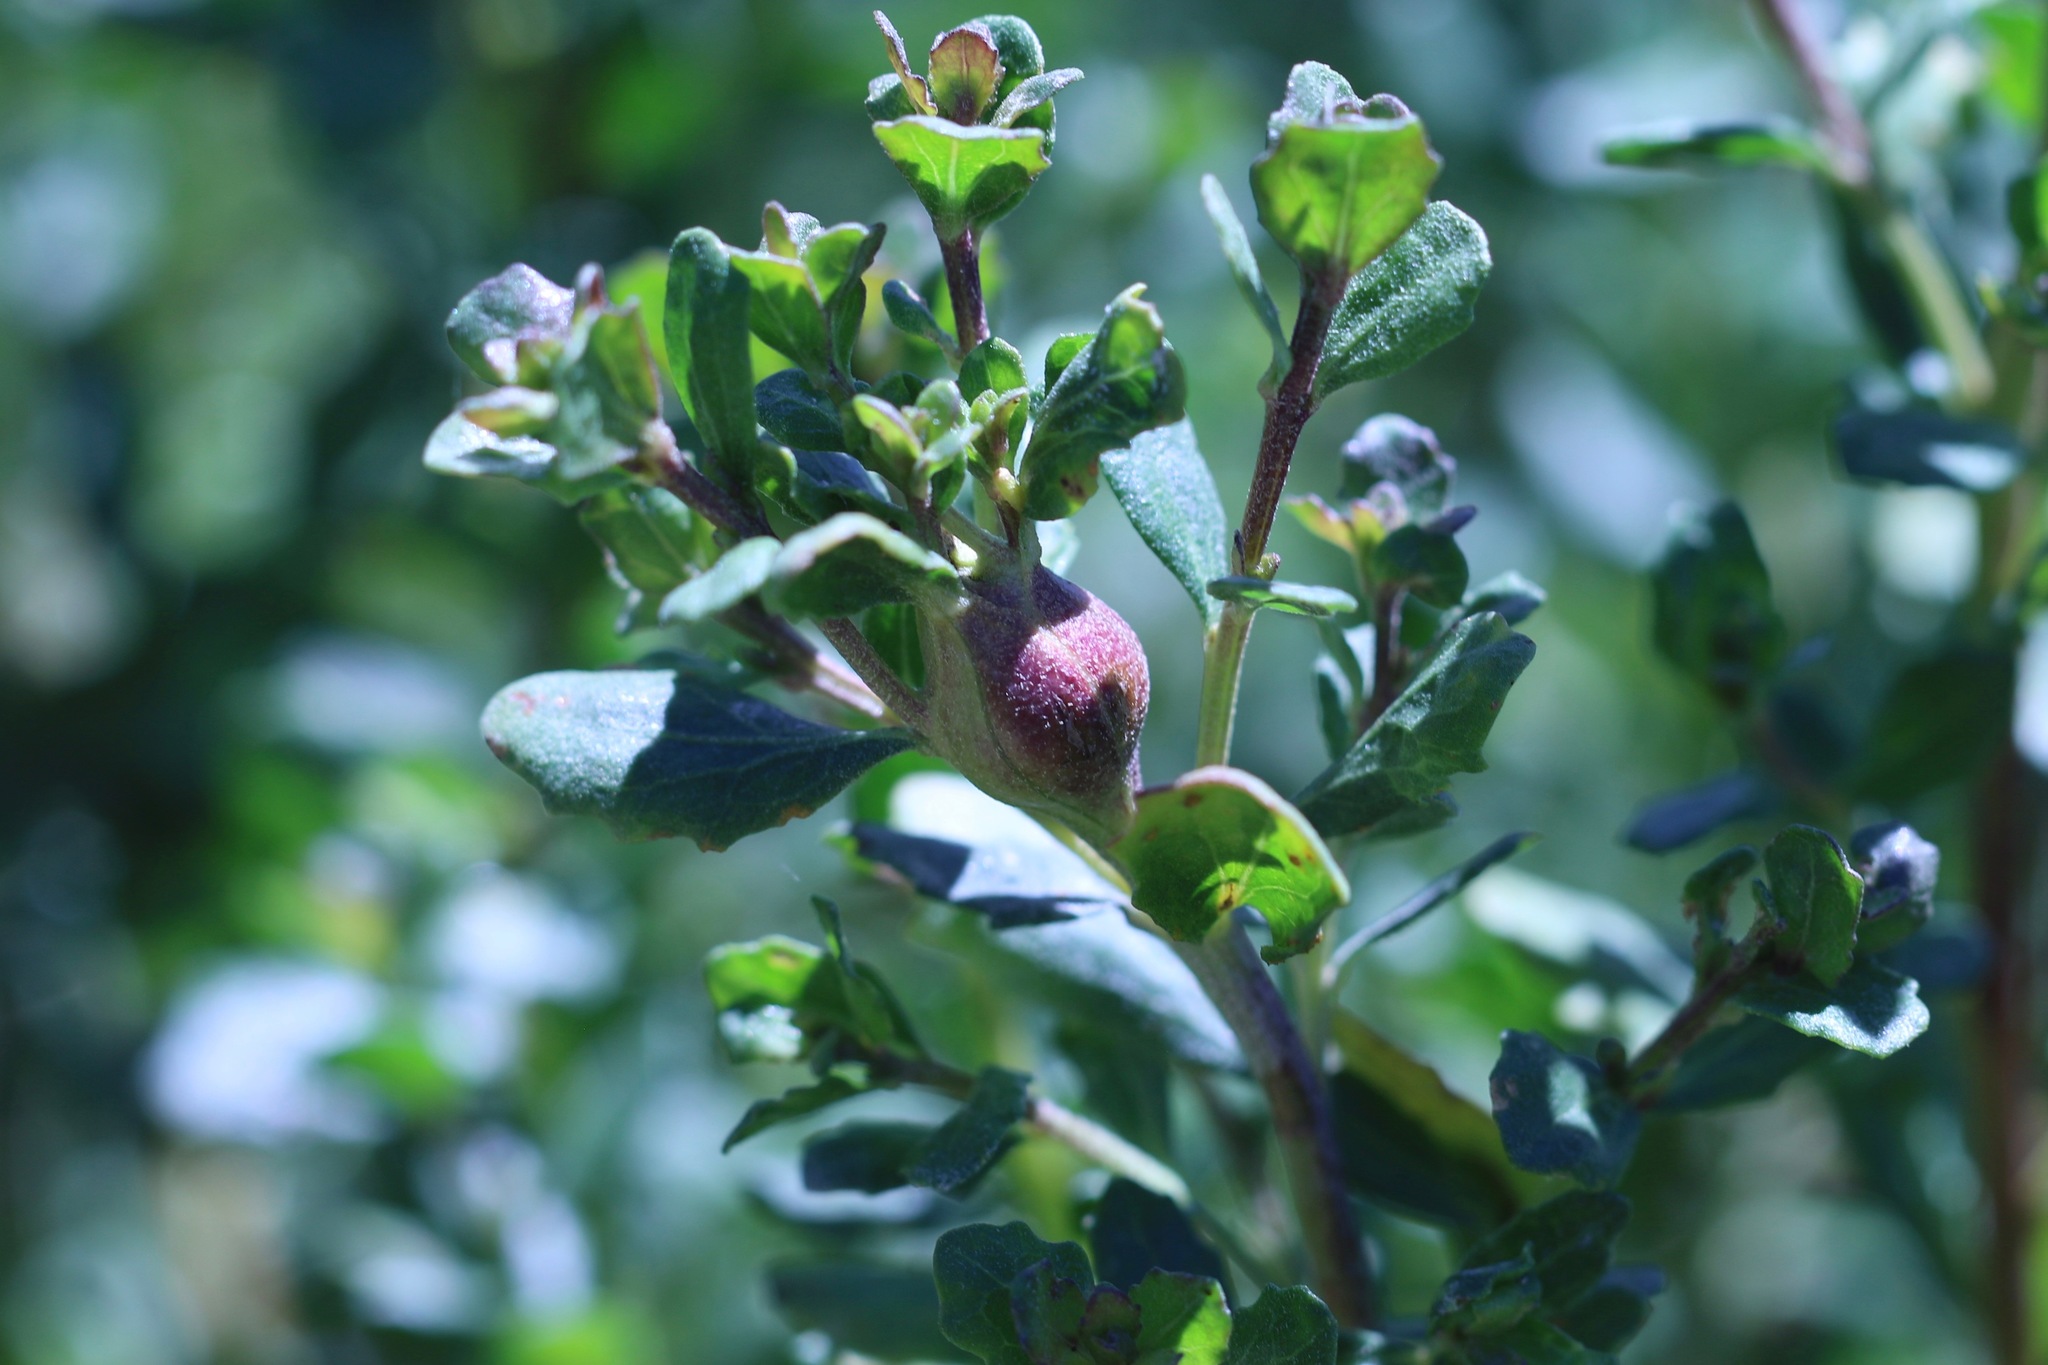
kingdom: Animalia
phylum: Arthropoda
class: Insecta
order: Lepidoptera
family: Gelechiidae
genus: Gnorimoschema
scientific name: Gnorimoschema baccharisella
